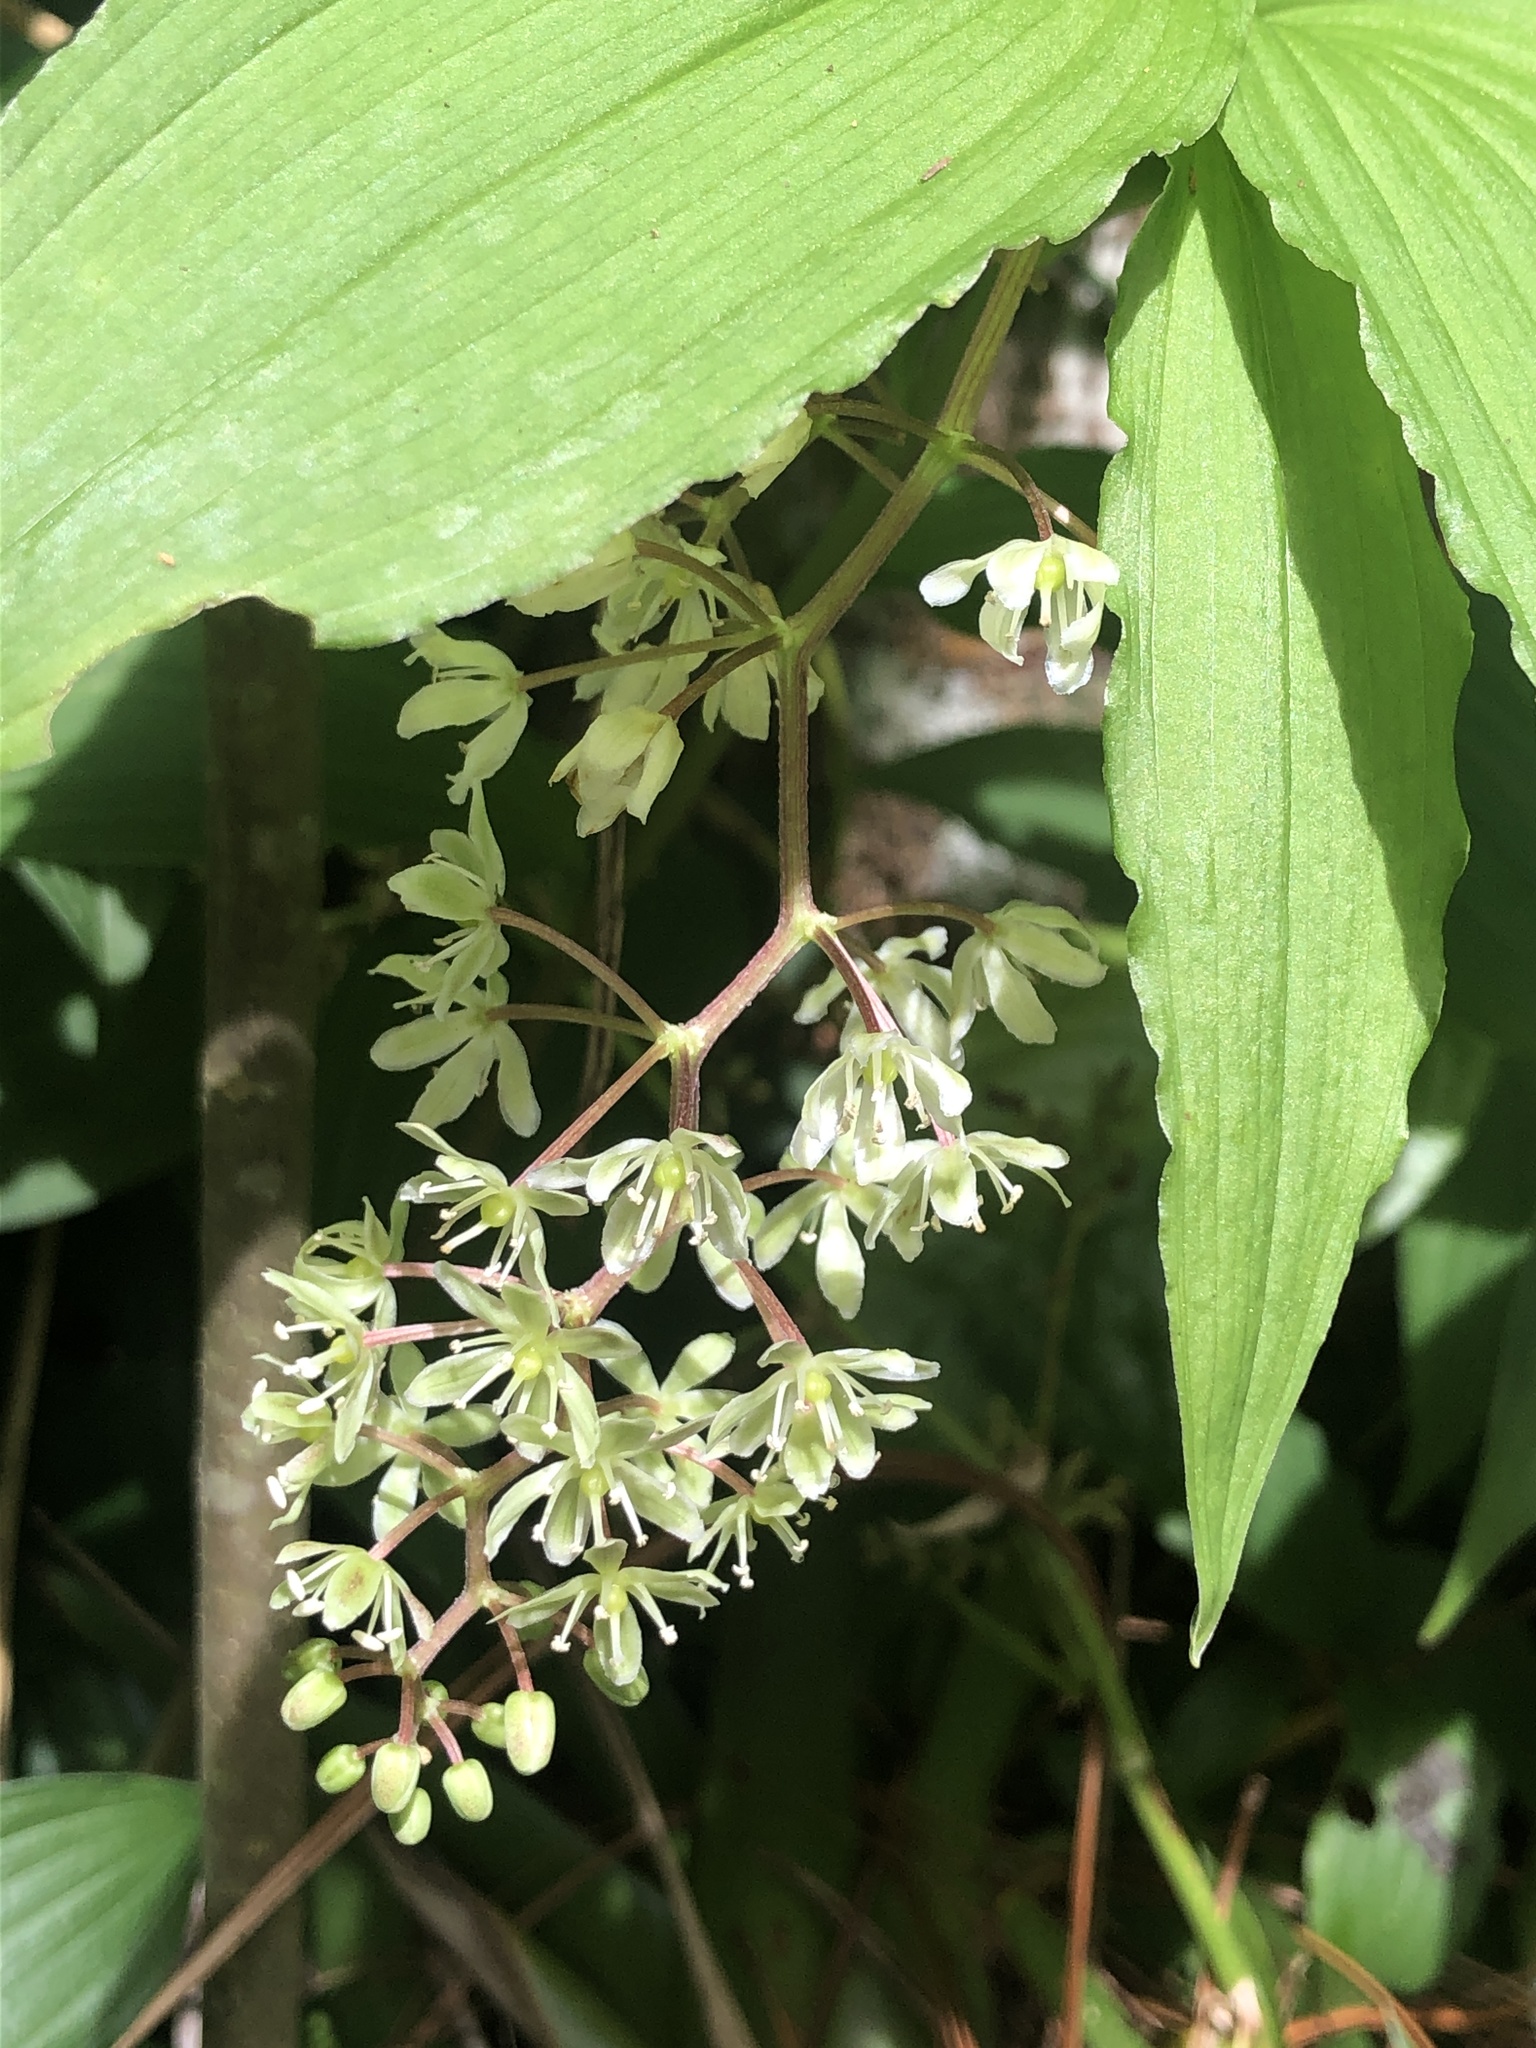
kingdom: Plantae
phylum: Tracheophyta
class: Liliopsida
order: Asparagales
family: Asparagaceae
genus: Maianthemum
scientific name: Maianthemum flexuosum
